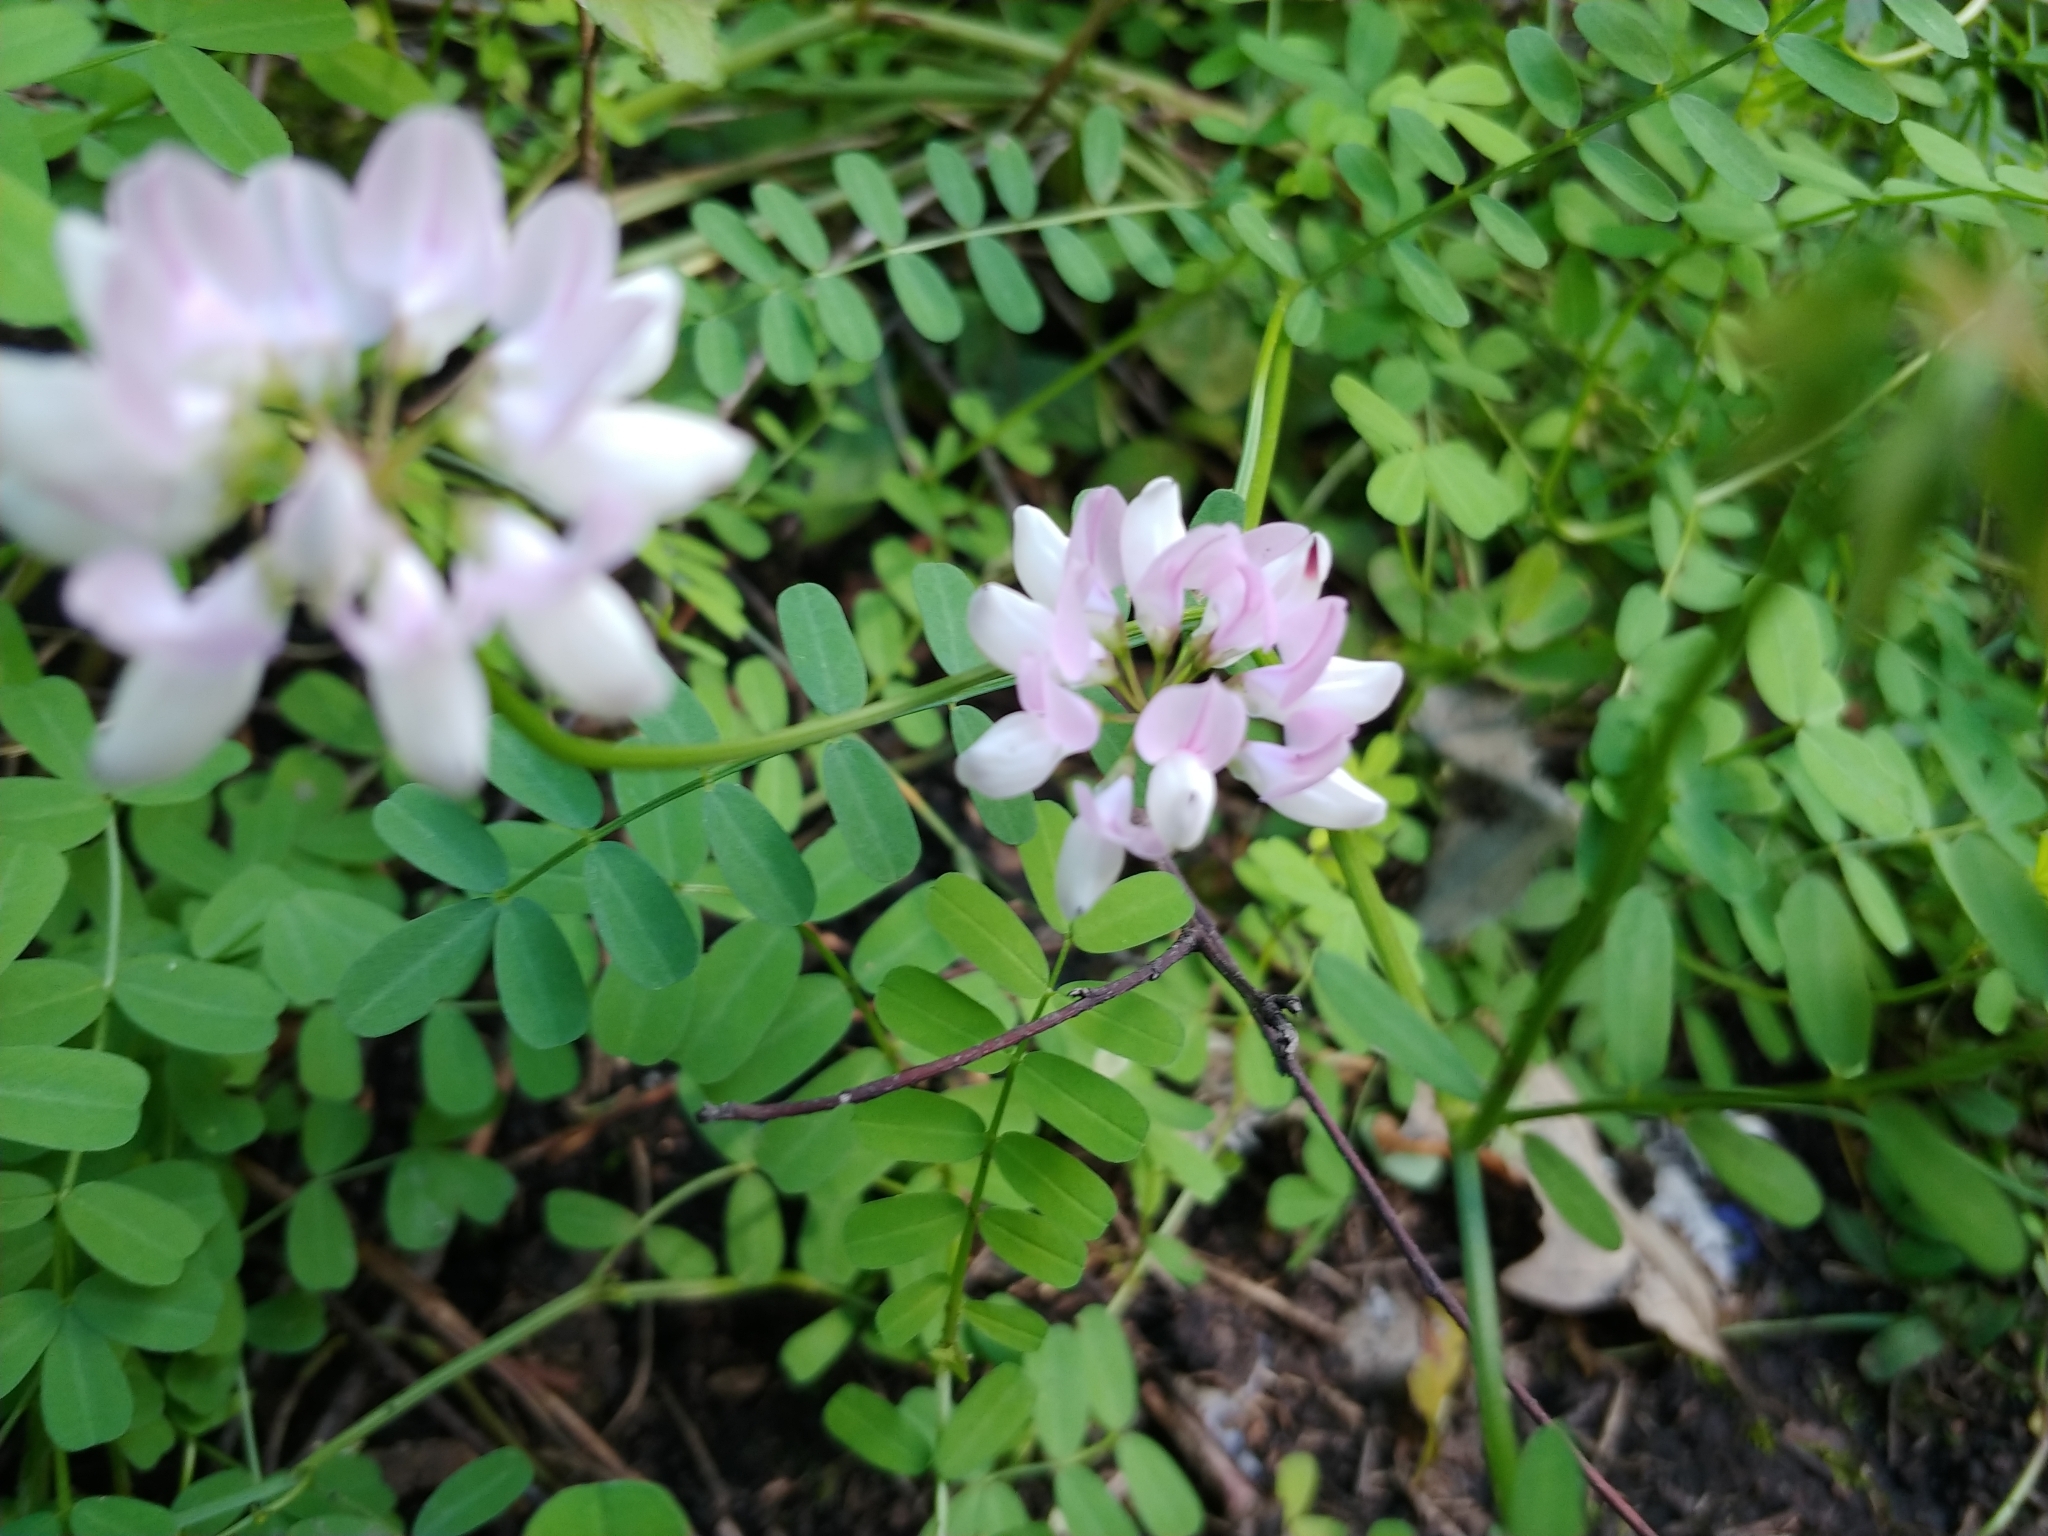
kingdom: Plantae
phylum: Tracheophyta
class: Magnoliopsida
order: Fabales
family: Fabaceae
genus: Coronilla
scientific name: Coronilla varia
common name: Crownvetch
